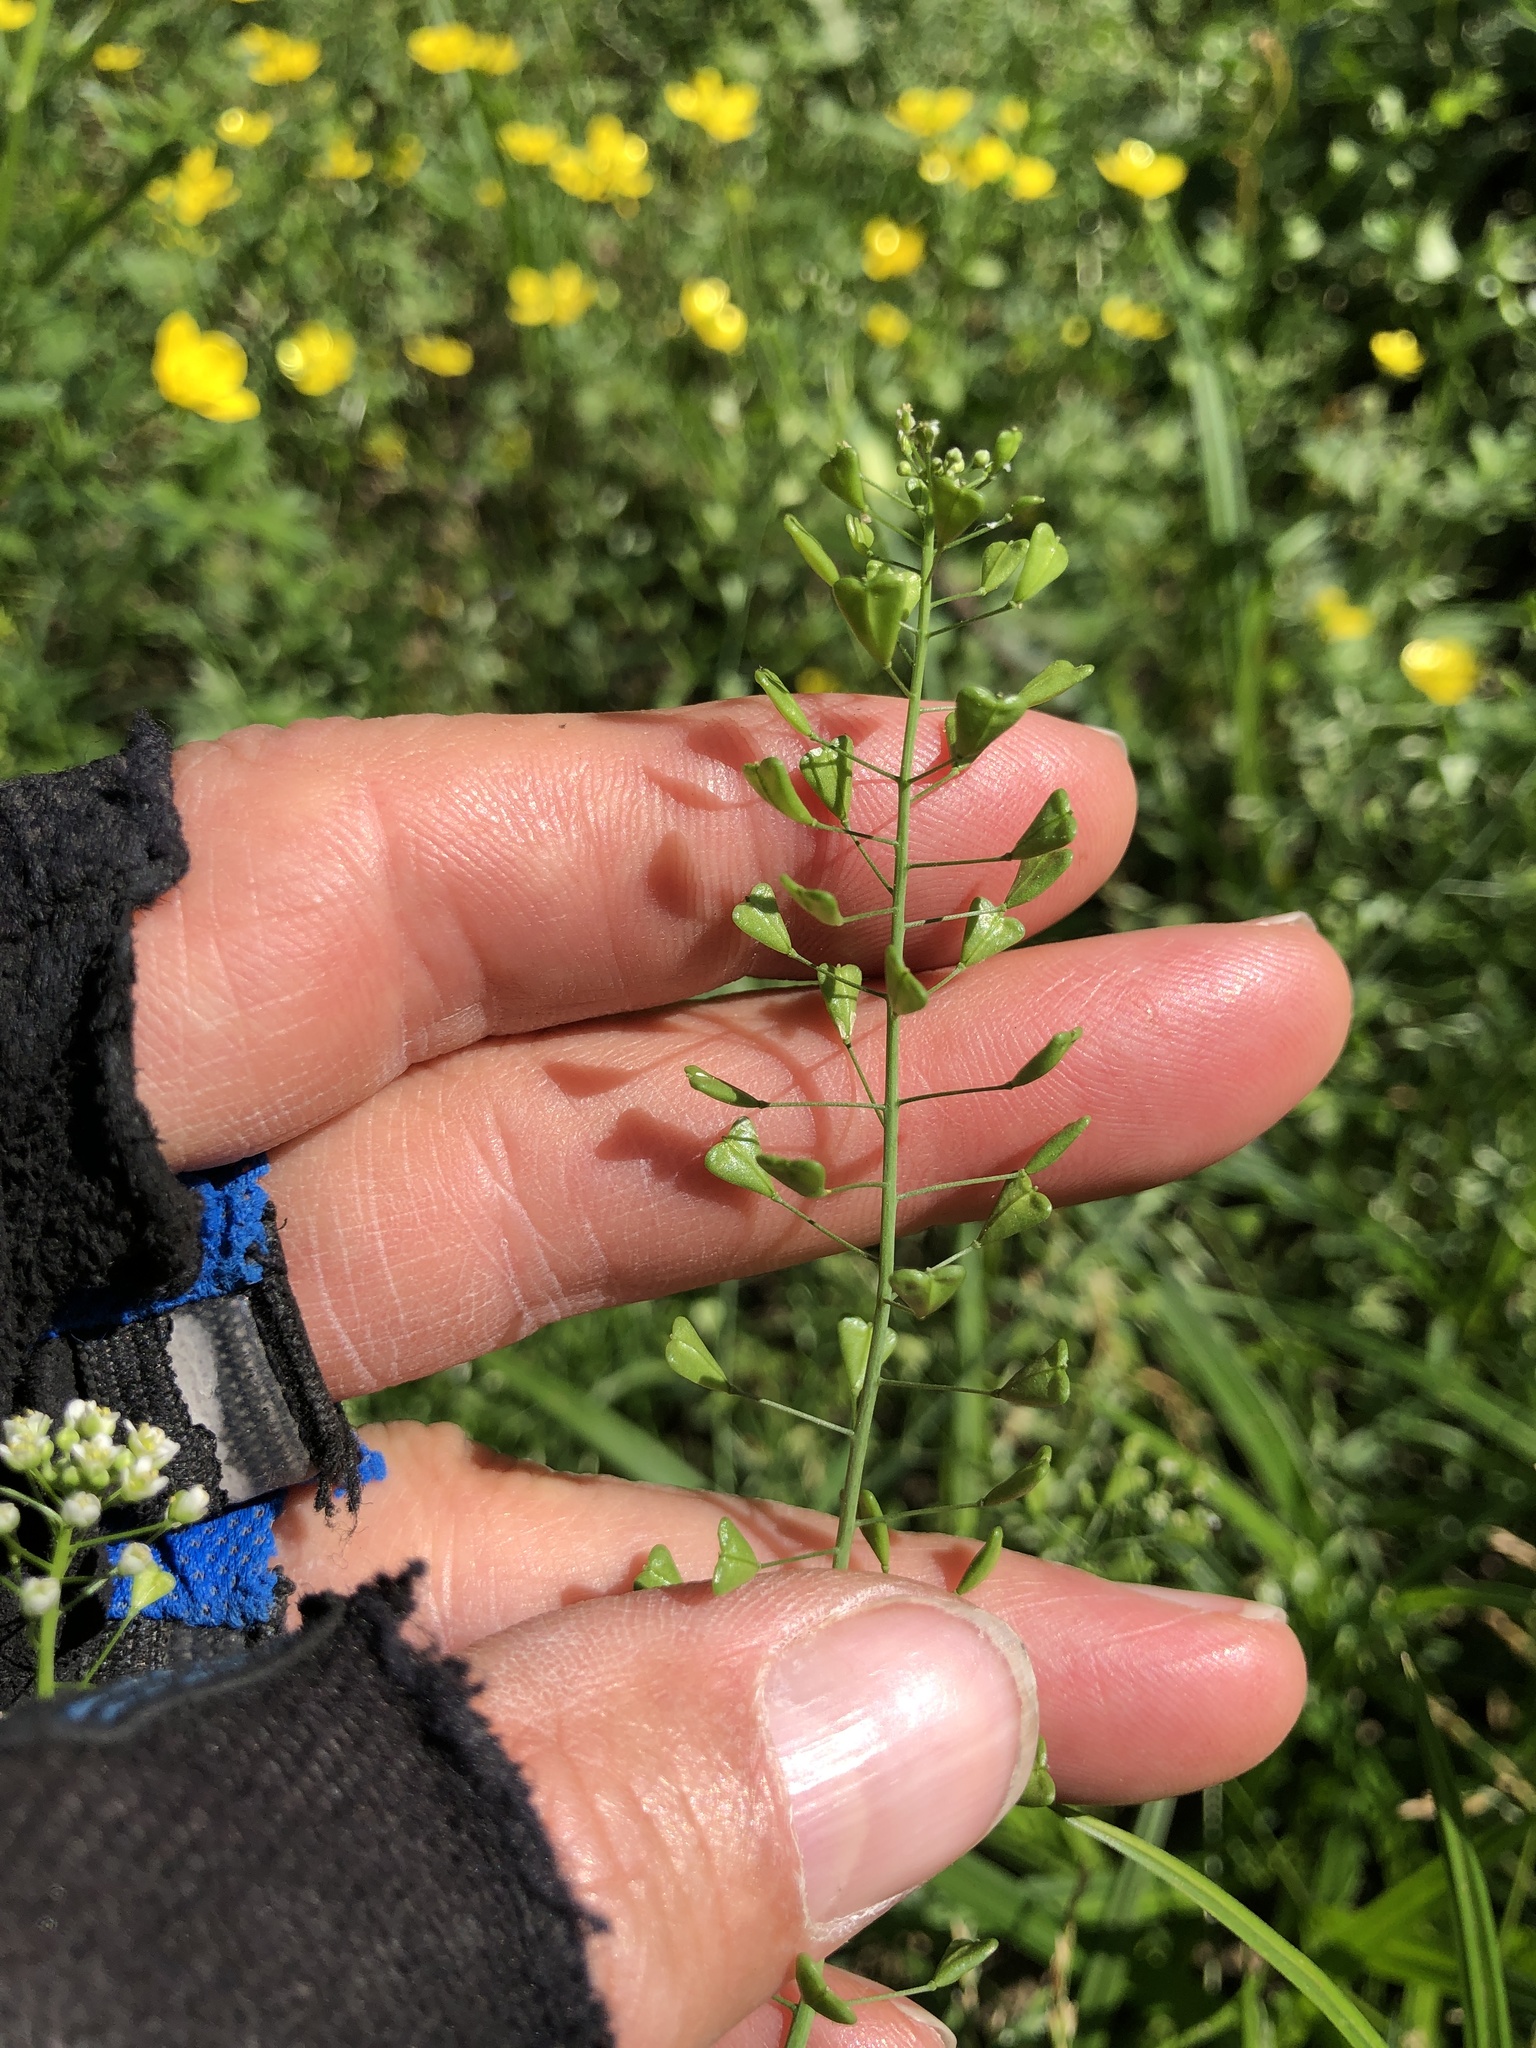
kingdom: Plantae
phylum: Tracheophyta
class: Magnoliopsida
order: Brassicales
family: Brassicaceae
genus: Capsella
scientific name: Capsella bursa-pastoris
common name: Shepherd's purse
